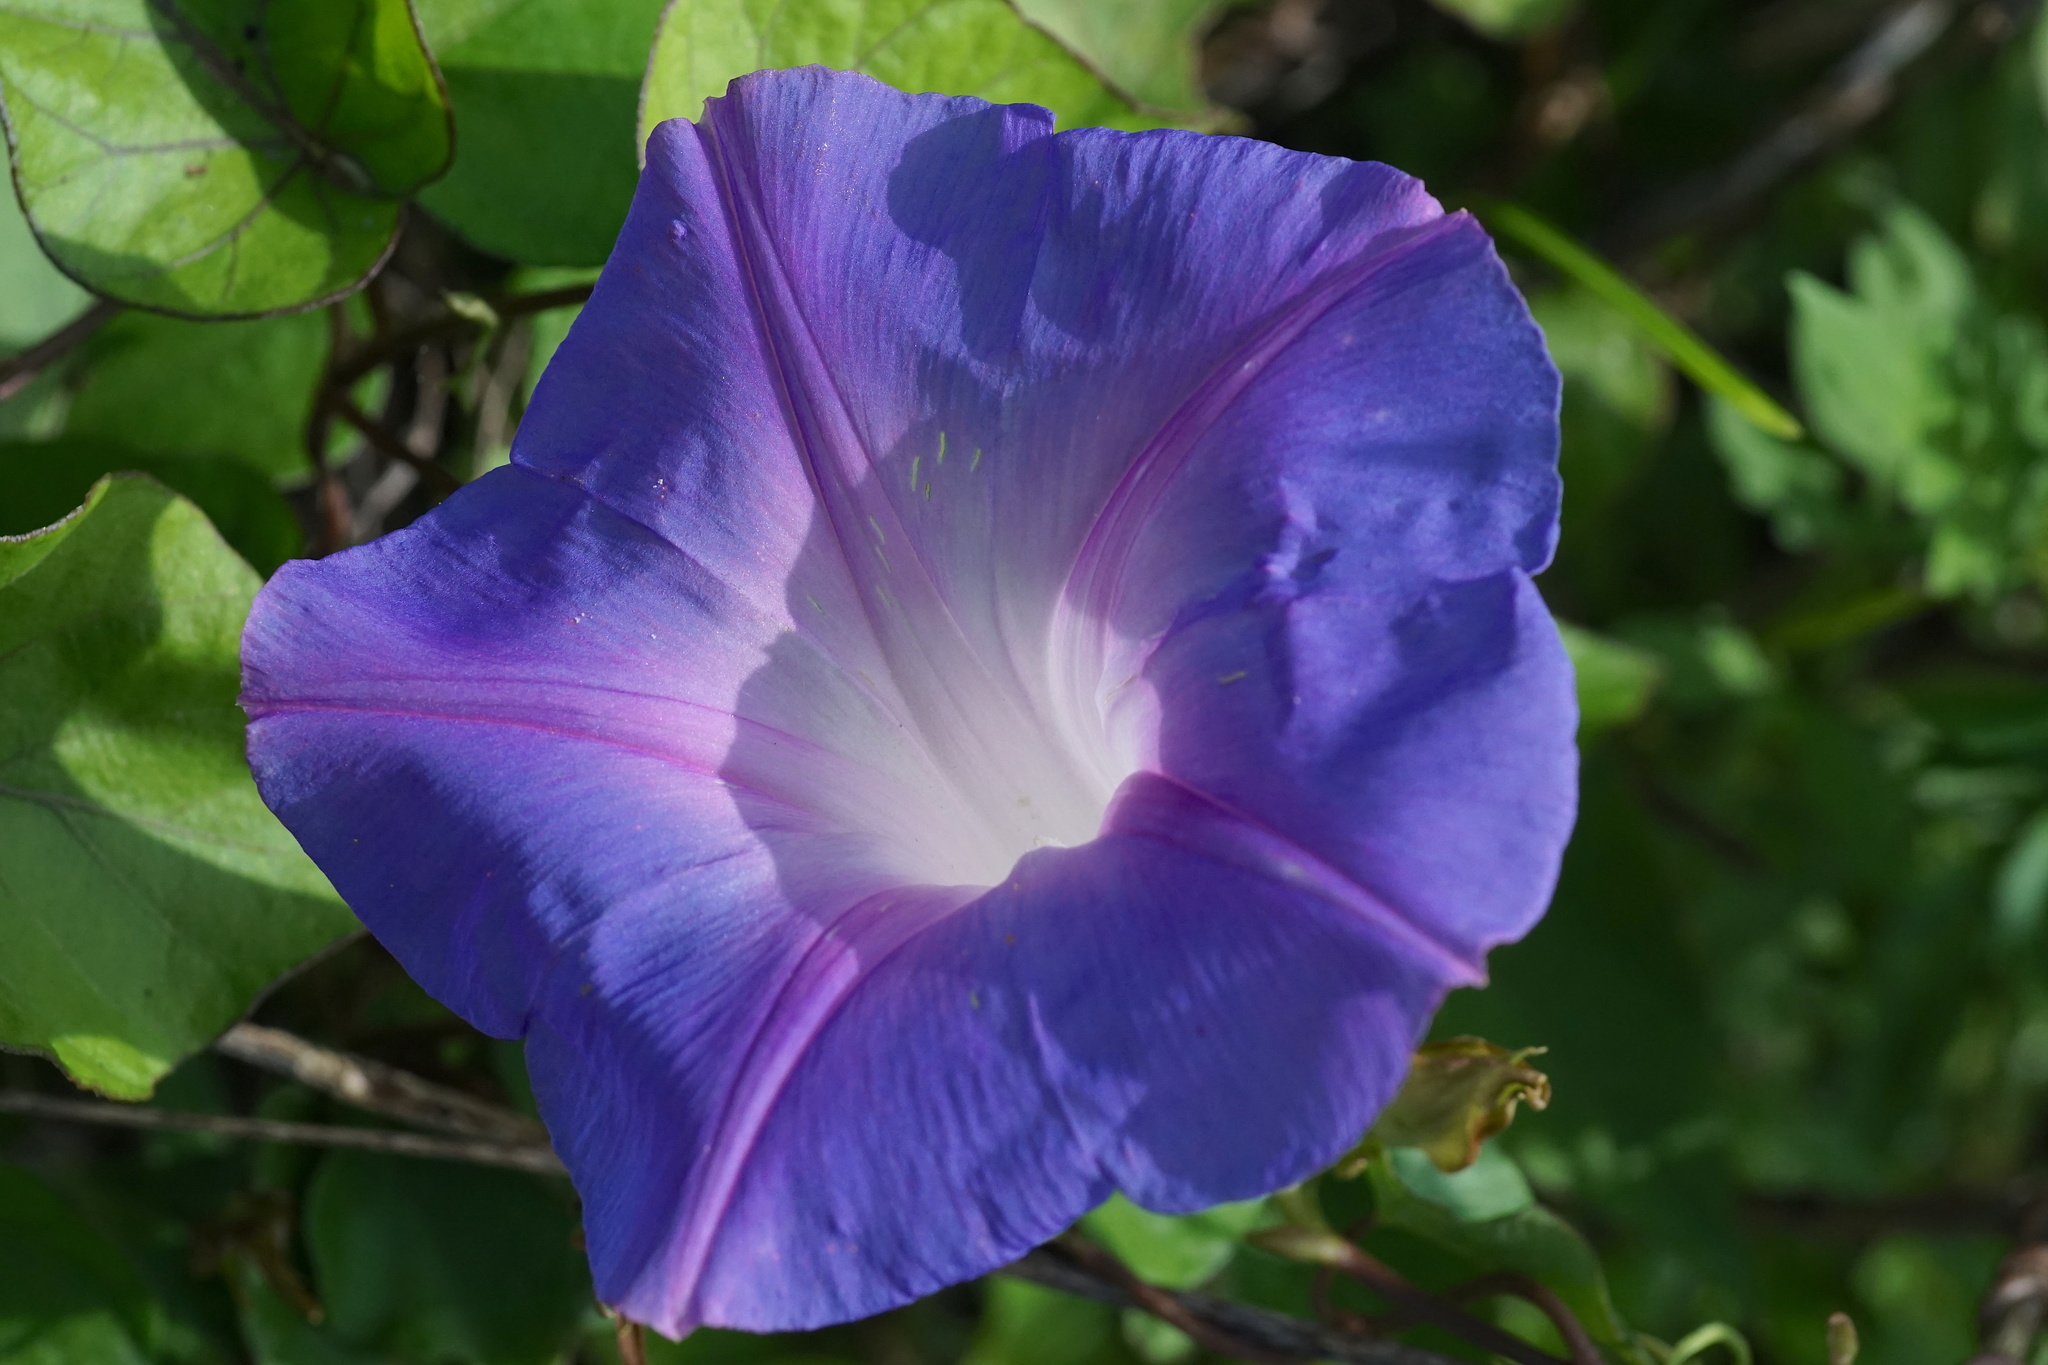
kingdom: Plantae
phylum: Tracheophyta
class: Magnoliopsida
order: Solanales
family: Convolvulaceae
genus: Ipomoea
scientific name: Ipomoea indica
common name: Blue dawnflower
